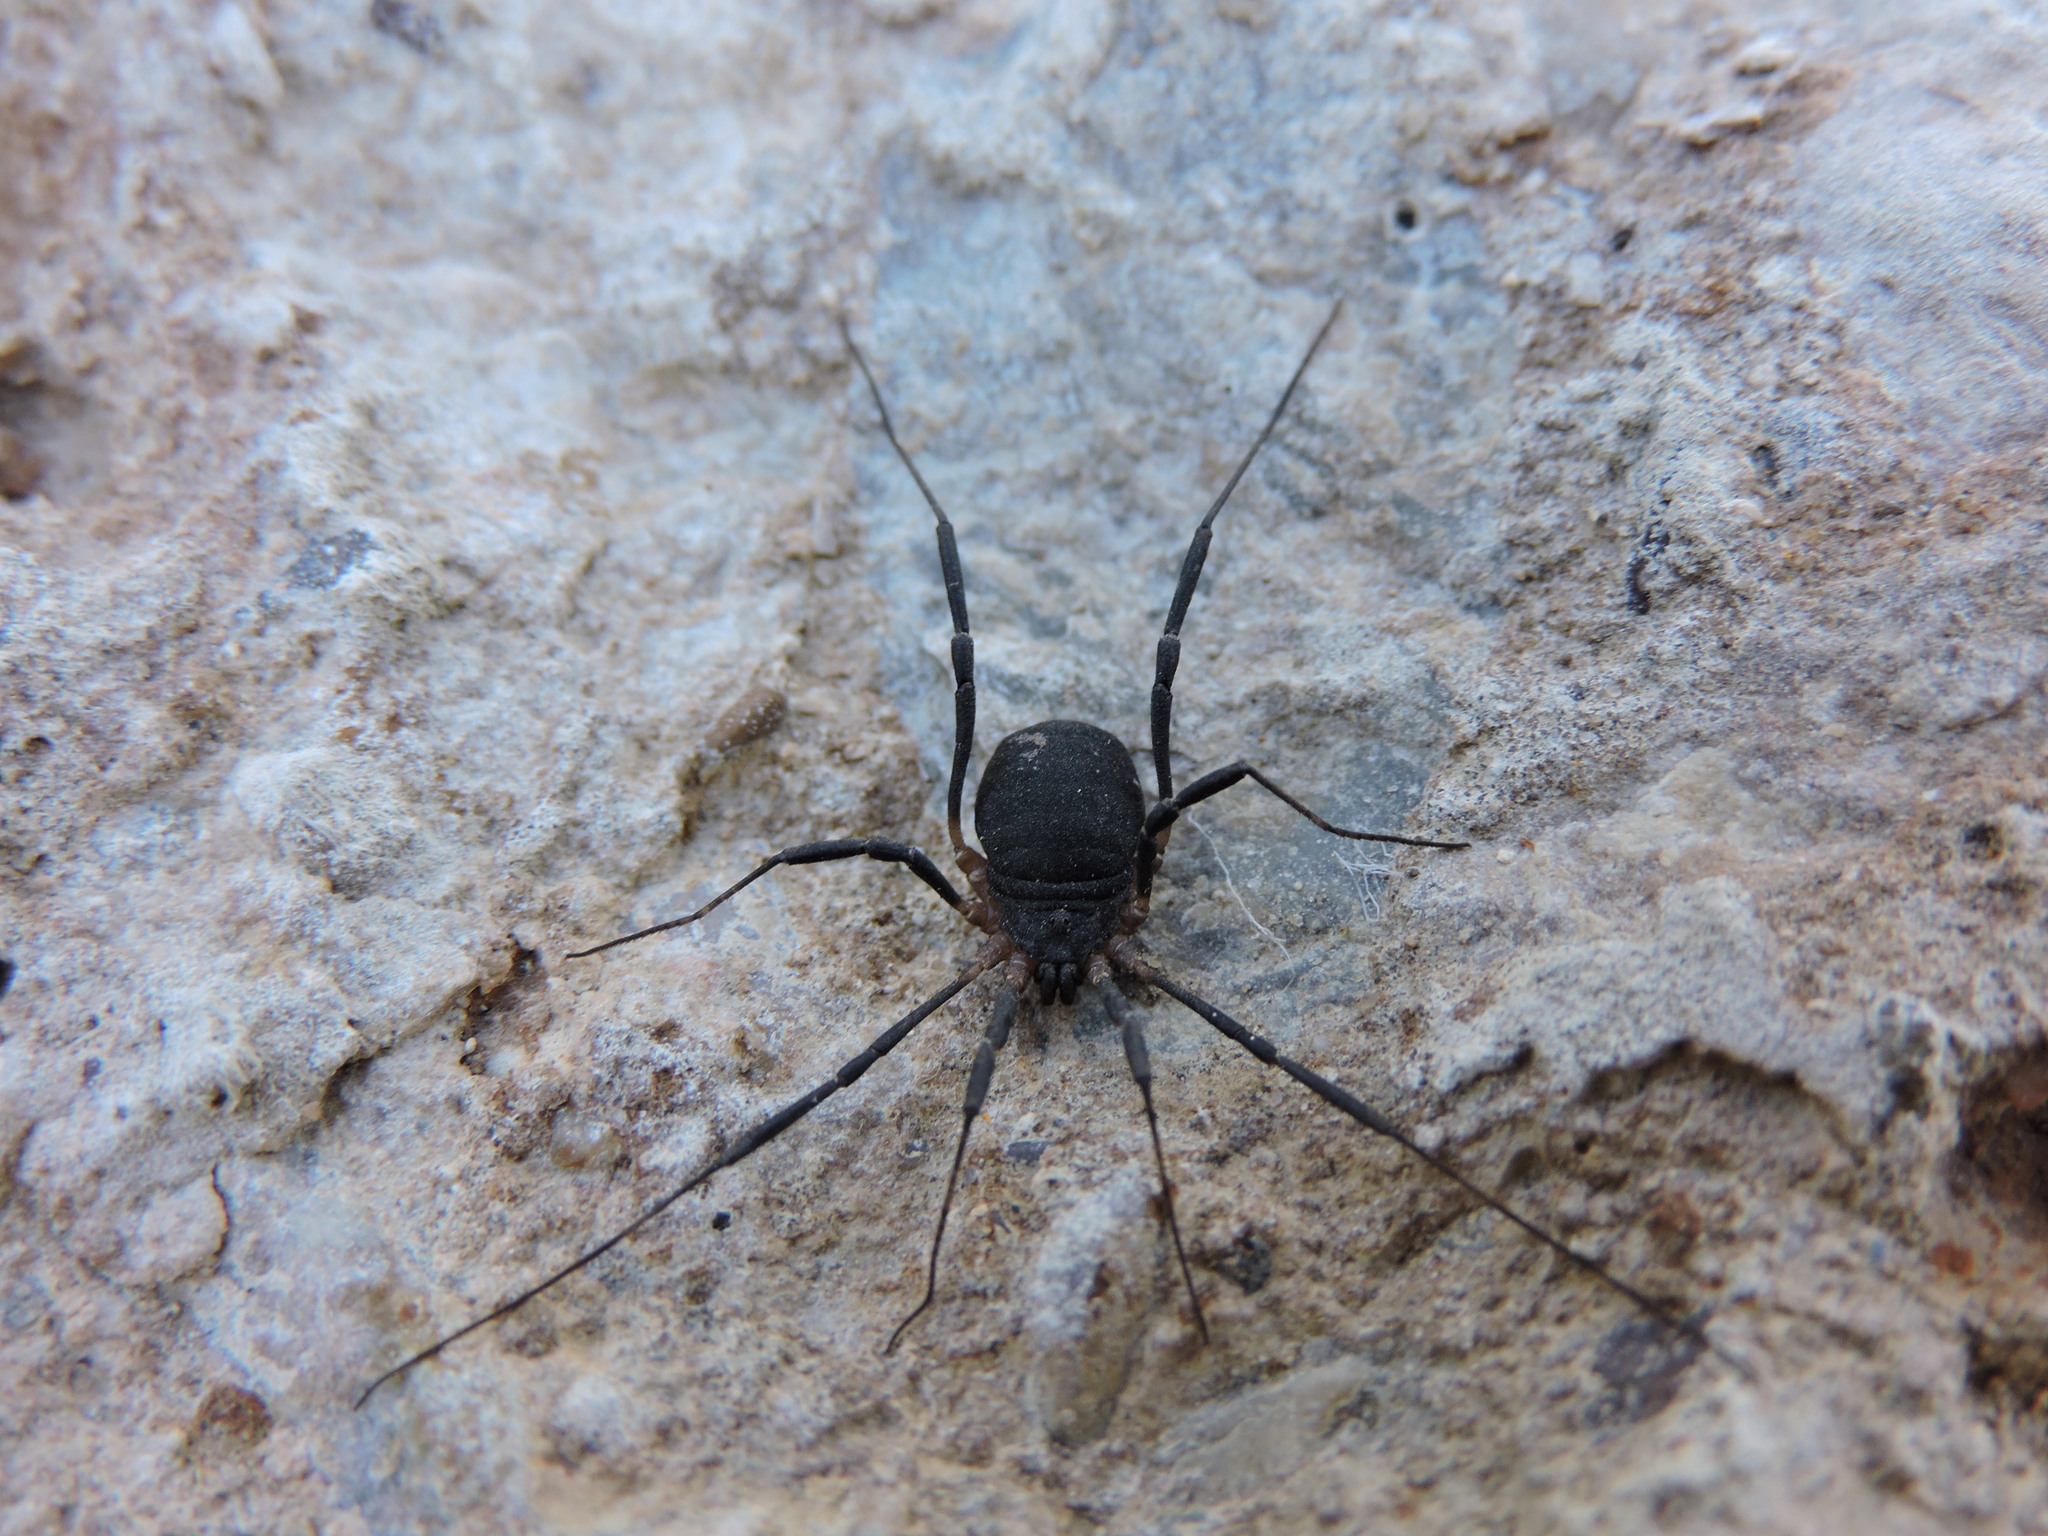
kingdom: Animalia
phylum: Arthropoda
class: Arachnida
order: Opiliones
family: Sclerosomatidae
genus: Eumesosoma
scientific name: Eumesosoma roeweri
